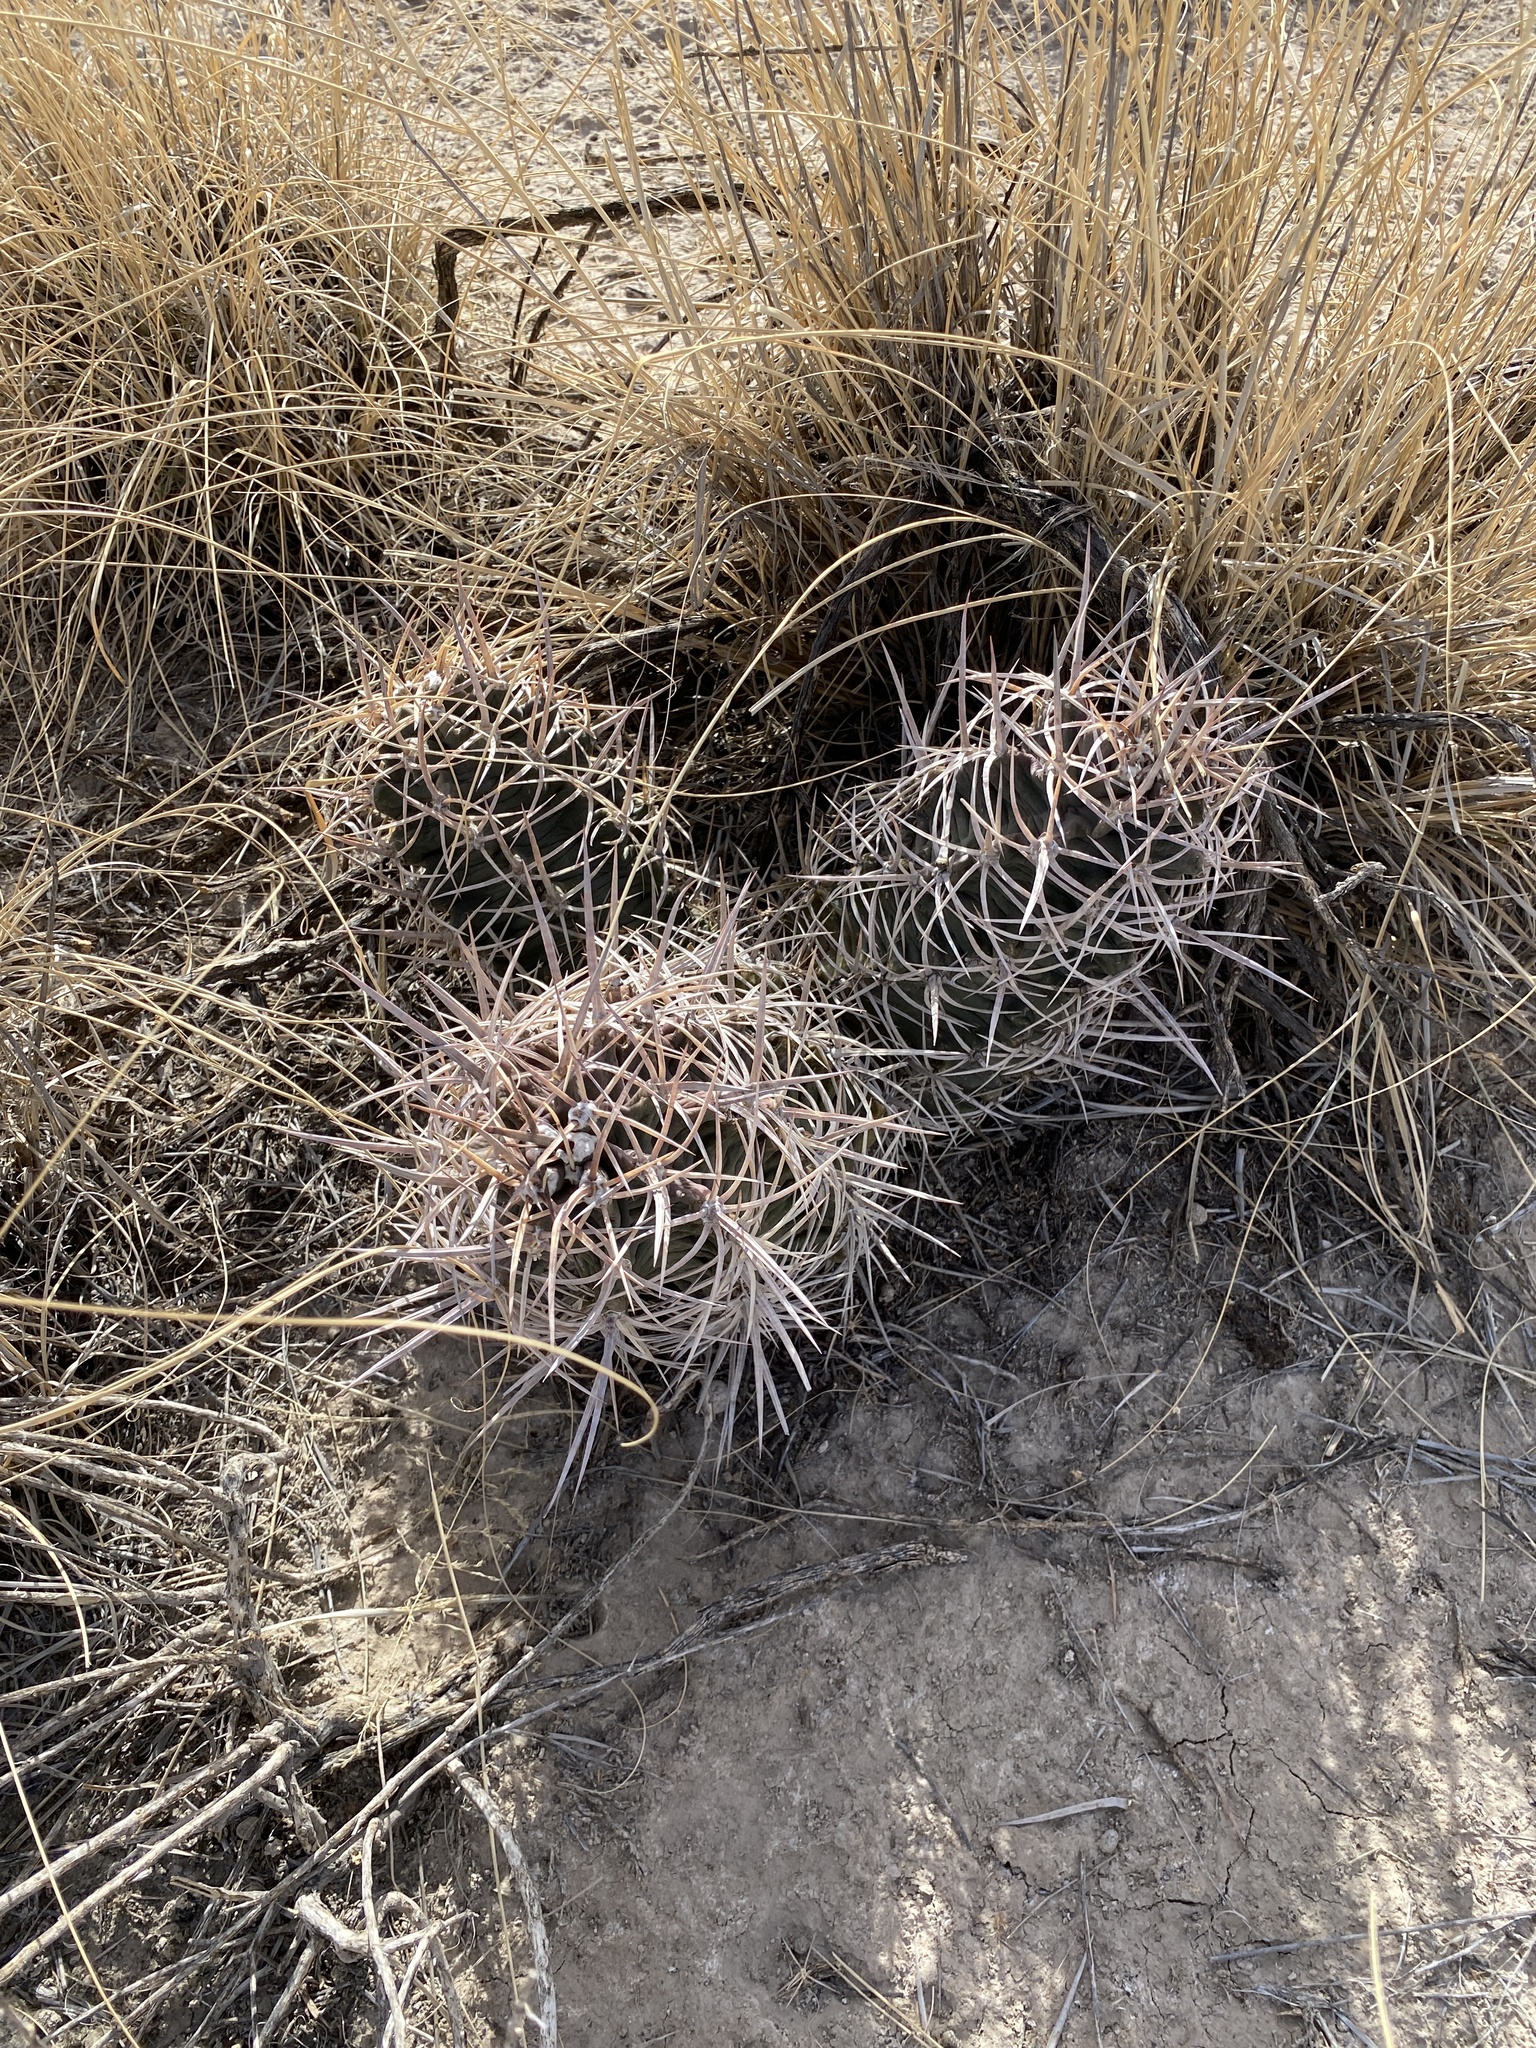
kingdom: Plantae
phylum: Tracheophyta
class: Magnoliopsida
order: Caryophyllales
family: Cactaceae
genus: Echinocereus
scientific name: Echinocereus triglochidiatus
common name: Claretcup hedgehog
